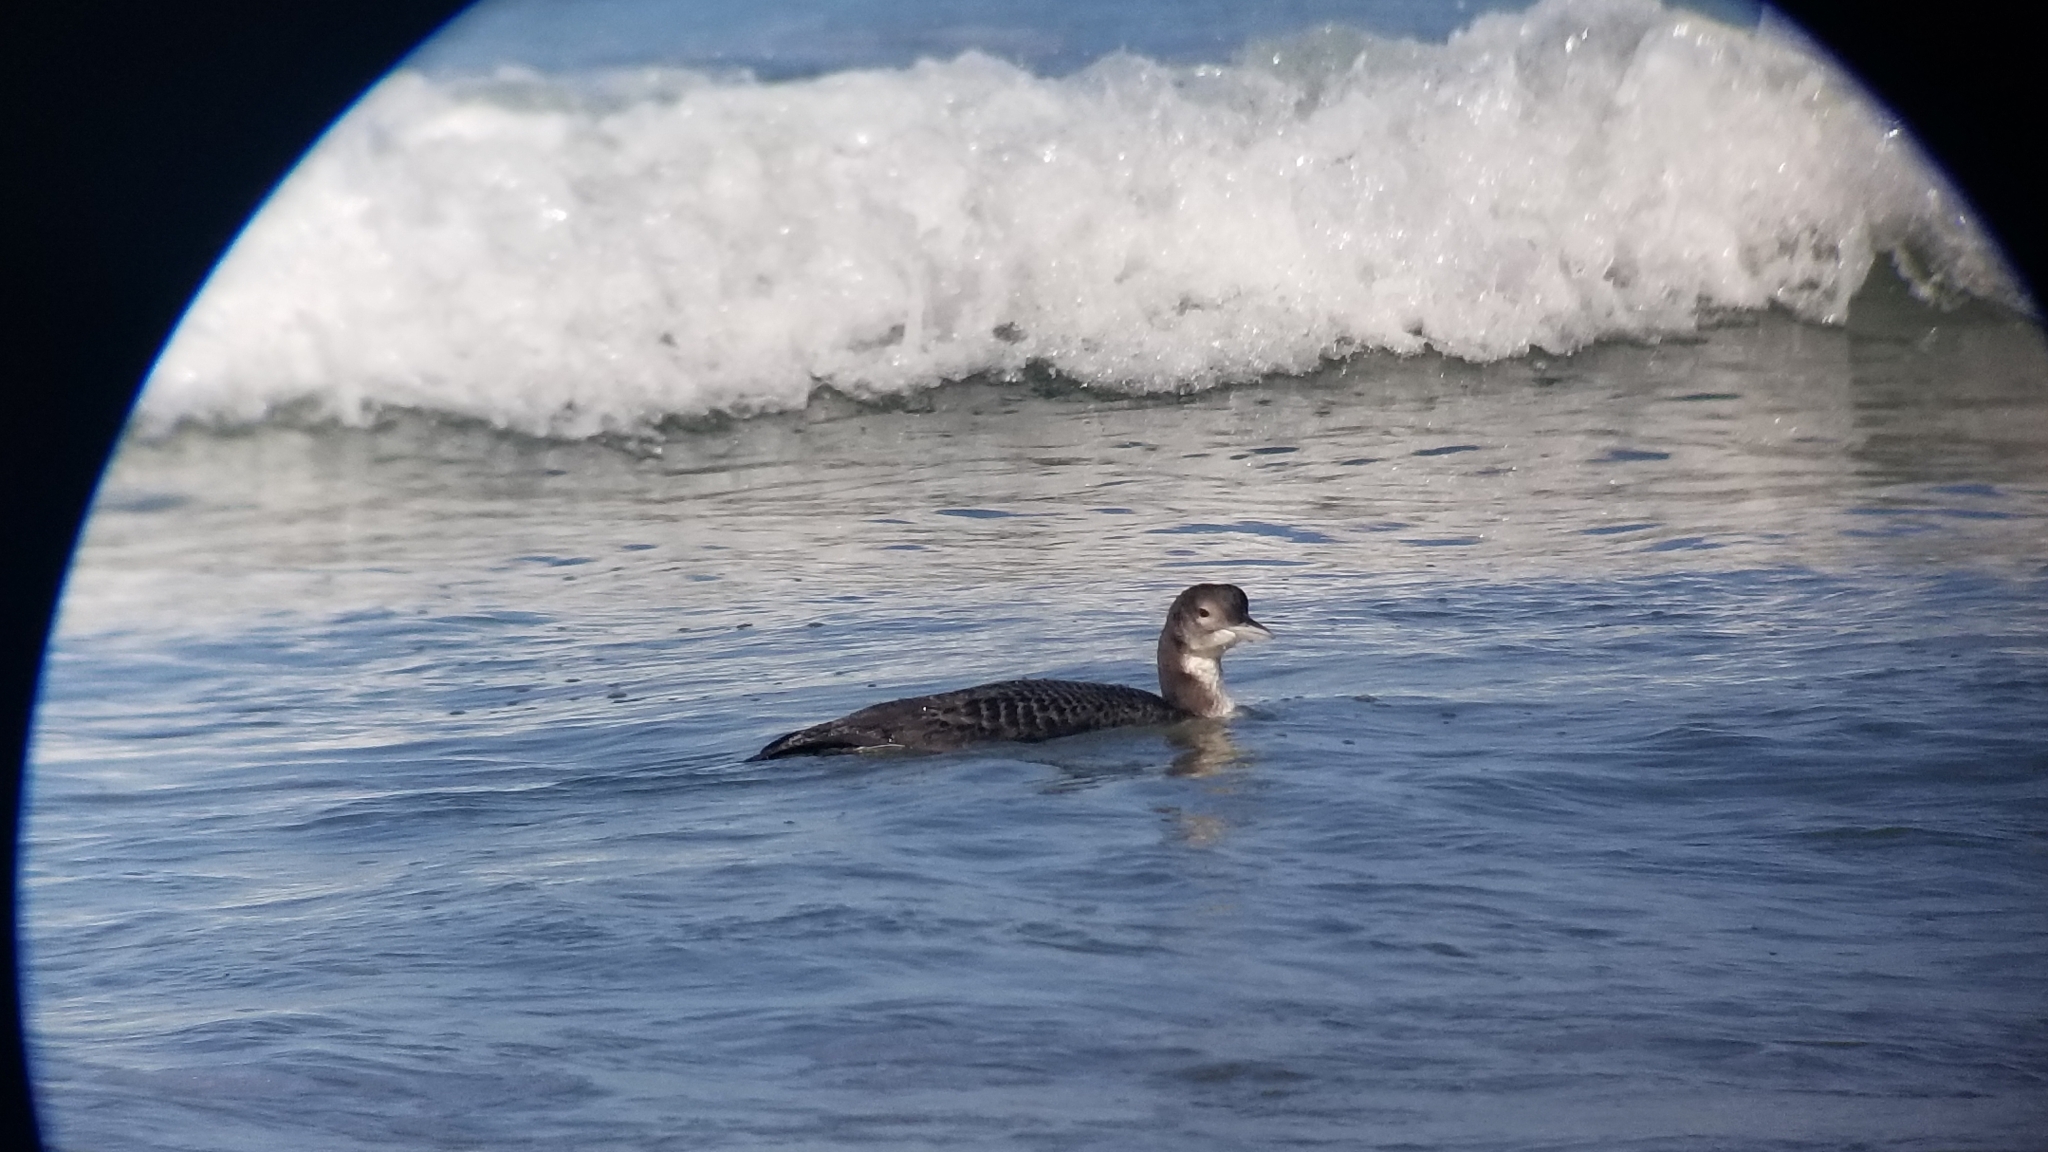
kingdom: Animalia
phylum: Chordata
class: Aves
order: Gaviiformes
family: Gaviidae
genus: Gavia
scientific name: Gavia immer
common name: Common loon
